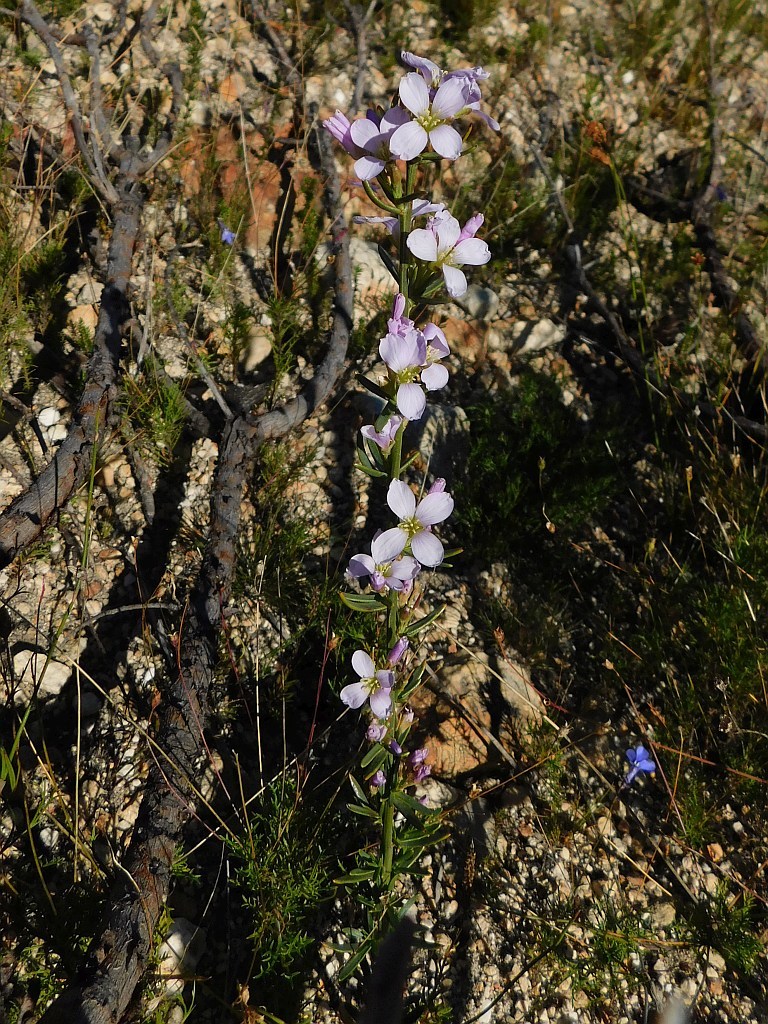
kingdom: Plantae
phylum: Tracheophyta
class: Magnoliopsida
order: Brassicales
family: Brassicaceae
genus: Heliophila
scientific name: Heliophila scoparia
